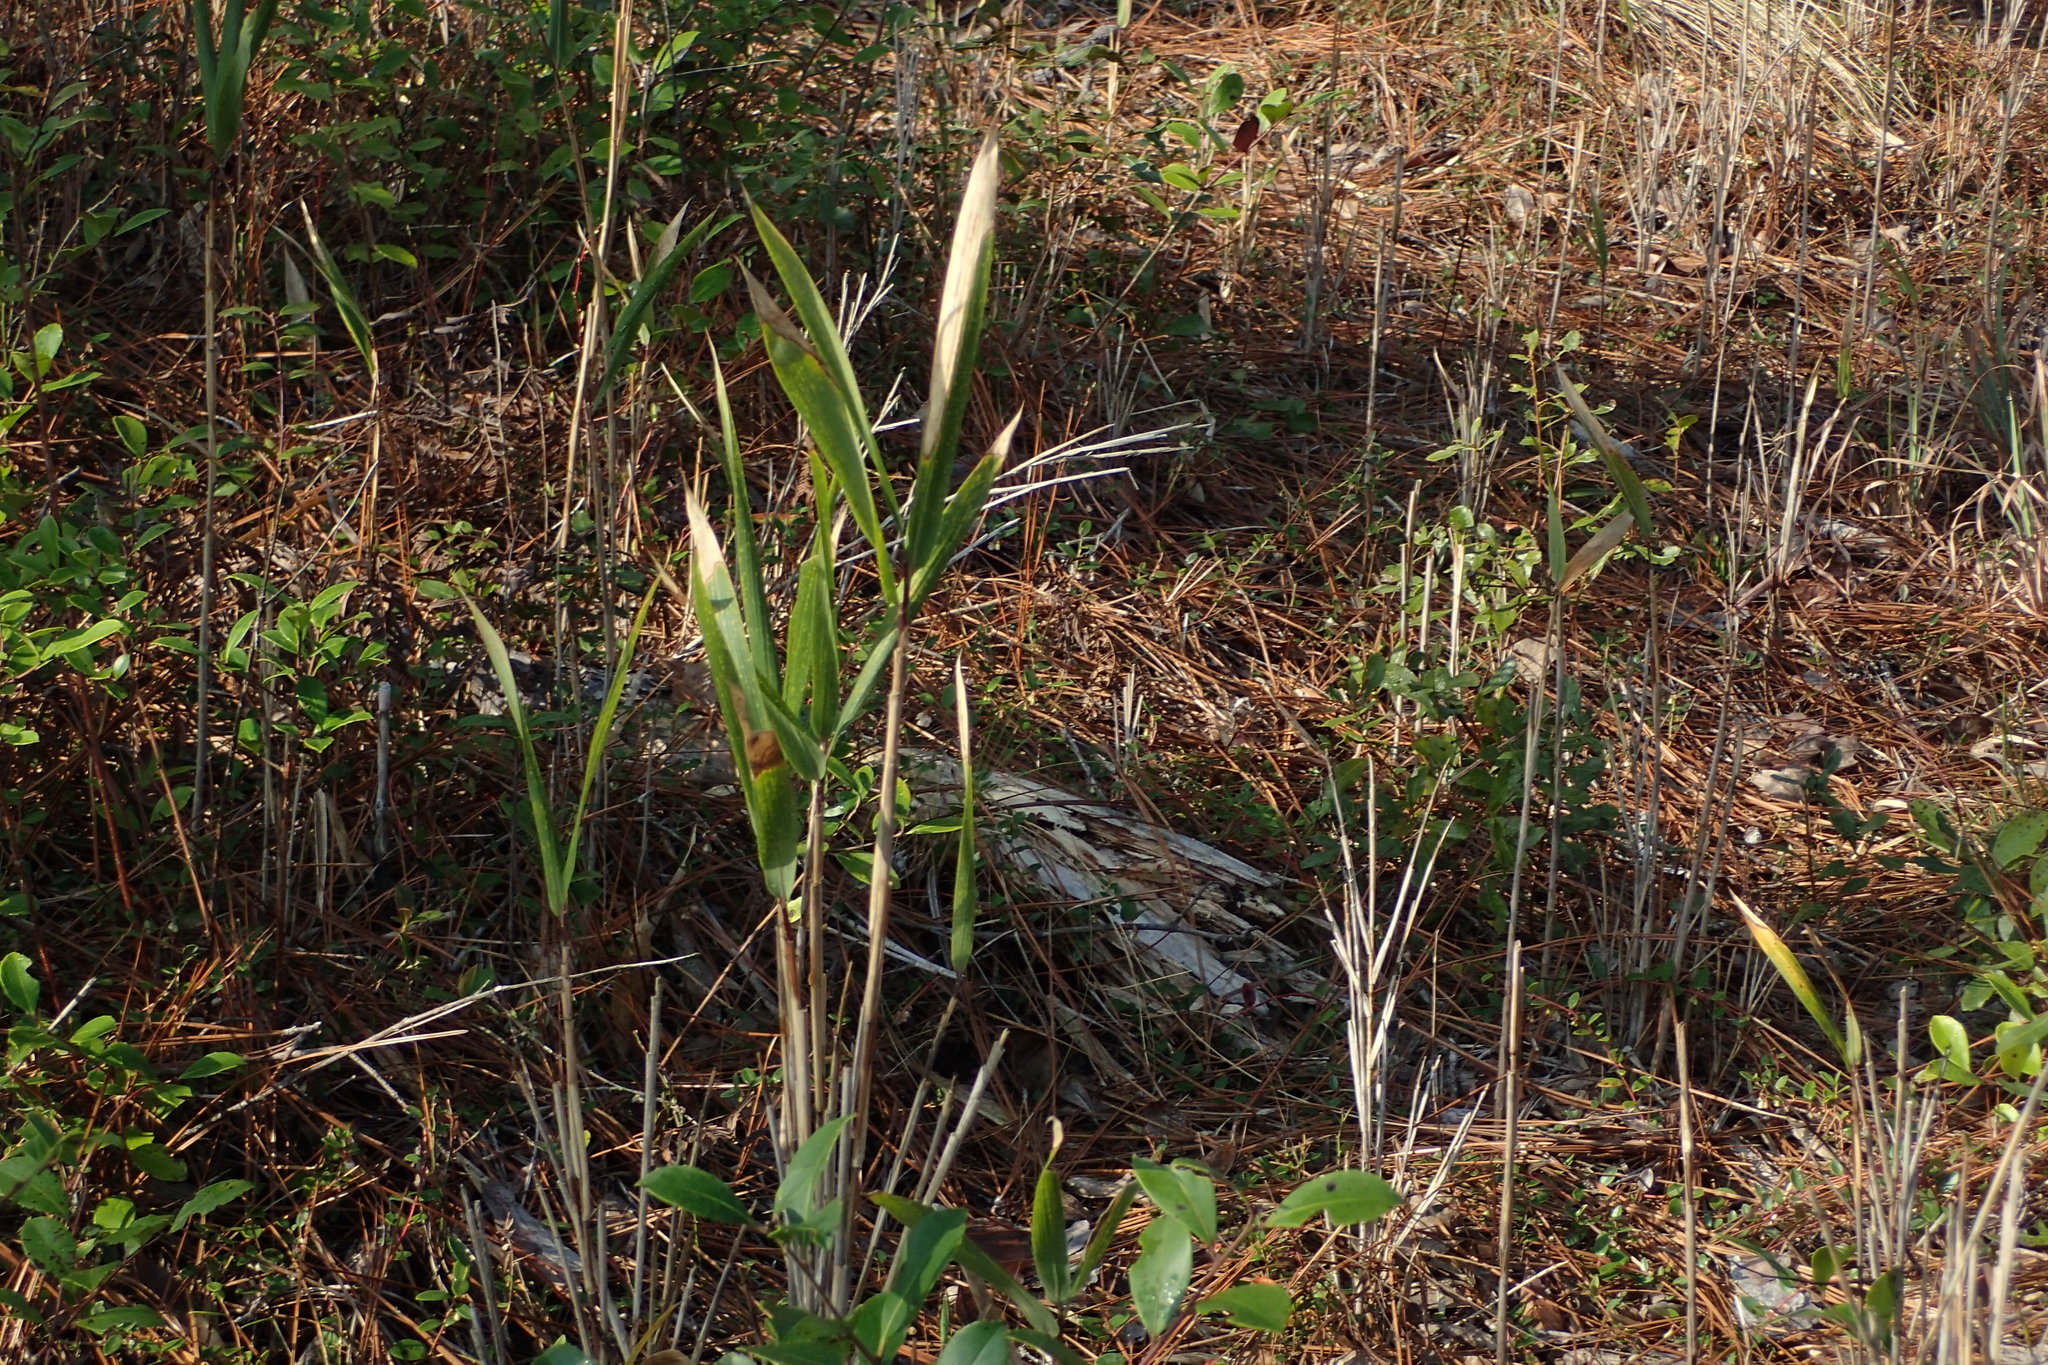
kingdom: Plantae
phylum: Tracheophyta
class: Liliopsida
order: Poales
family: Poaceae
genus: Arundinaria
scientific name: Arundinaria tecta
